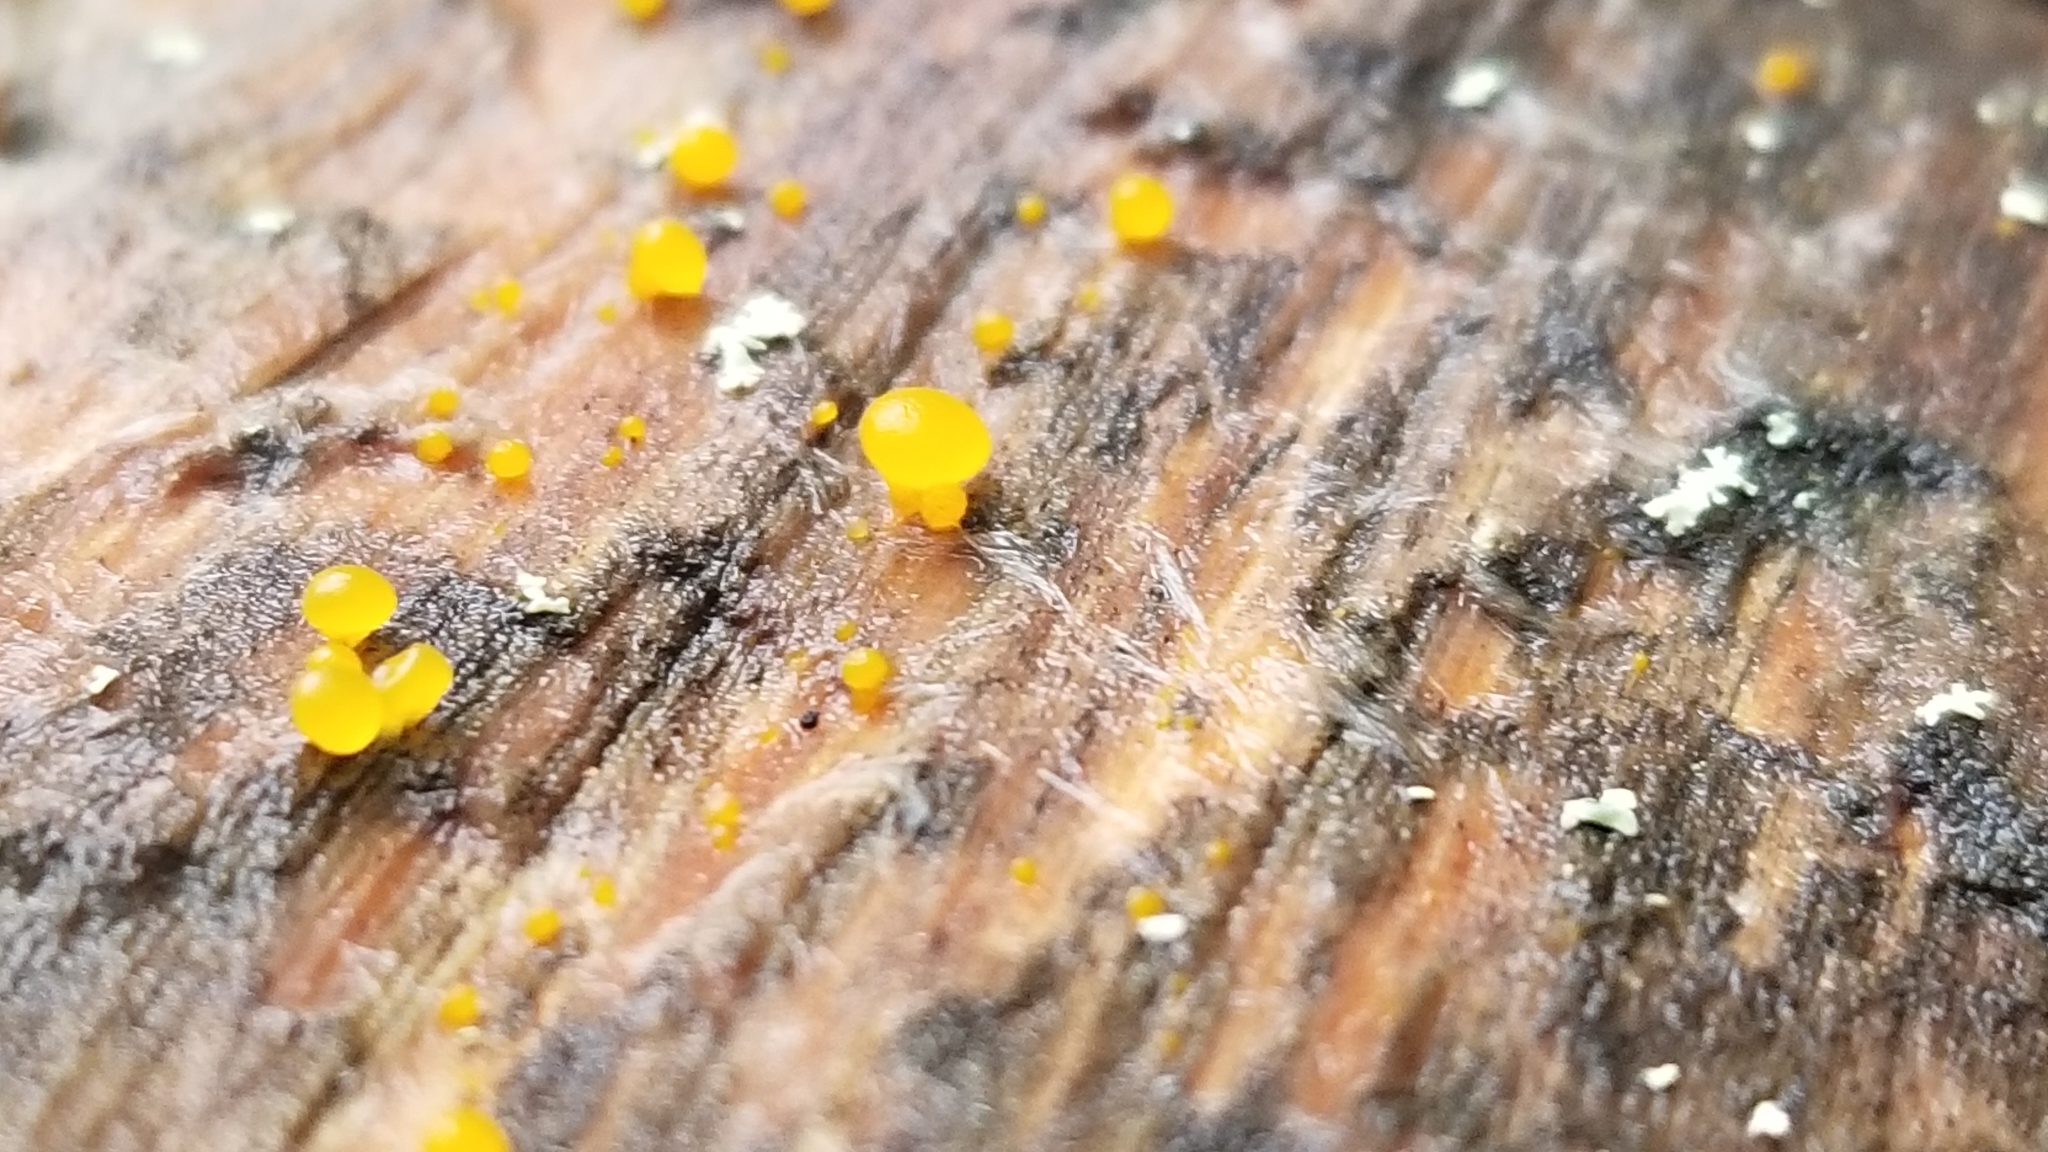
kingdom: Fungi
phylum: Basidiomycota
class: Dacrymycetes
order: Dacrymycetales
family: Dacrymycetaceae
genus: Dacrymyces
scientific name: Dacrymyces stillatus
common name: Common jelly spot
